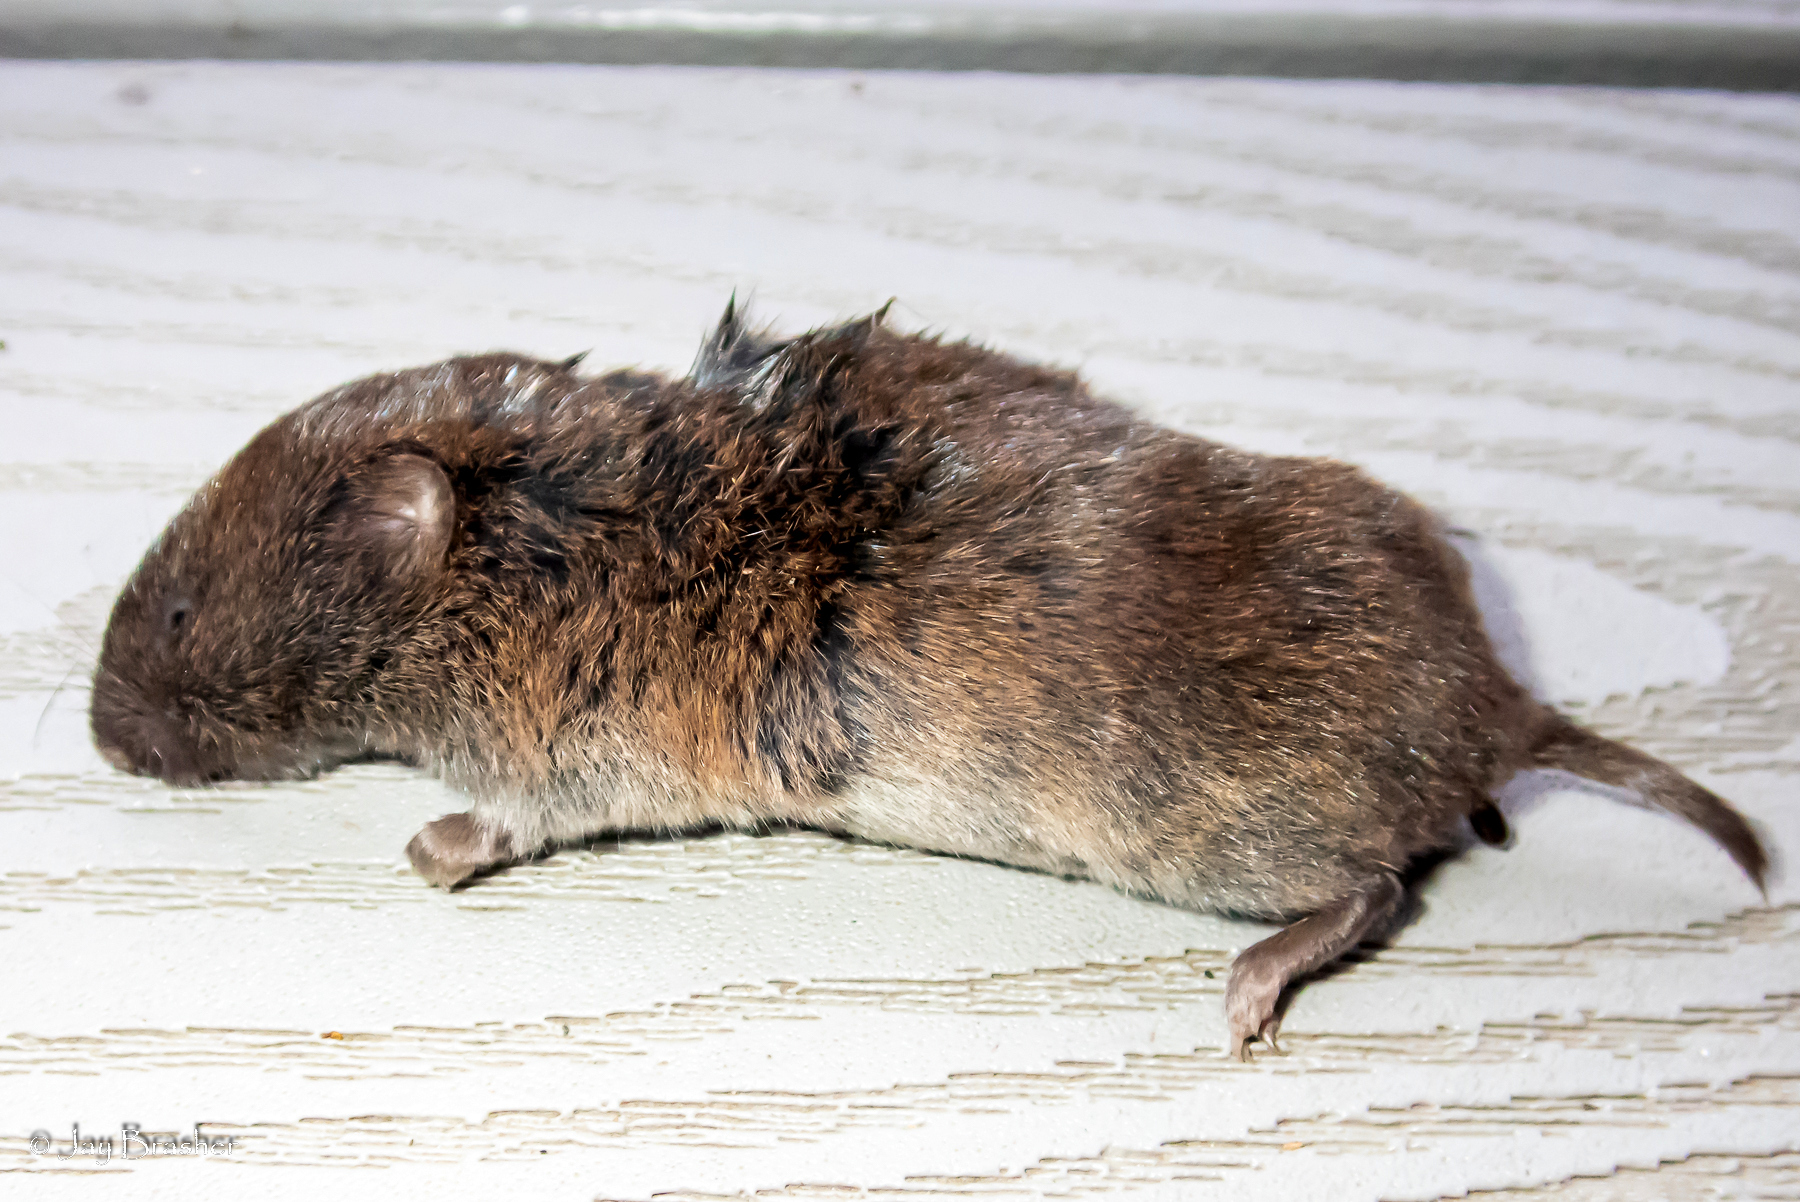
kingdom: Animalia
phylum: Chordata
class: Mammalia
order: Rodentia
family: Cricetidae
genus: Microtus
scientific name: Microtus pinetorum
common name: Woodland vole
